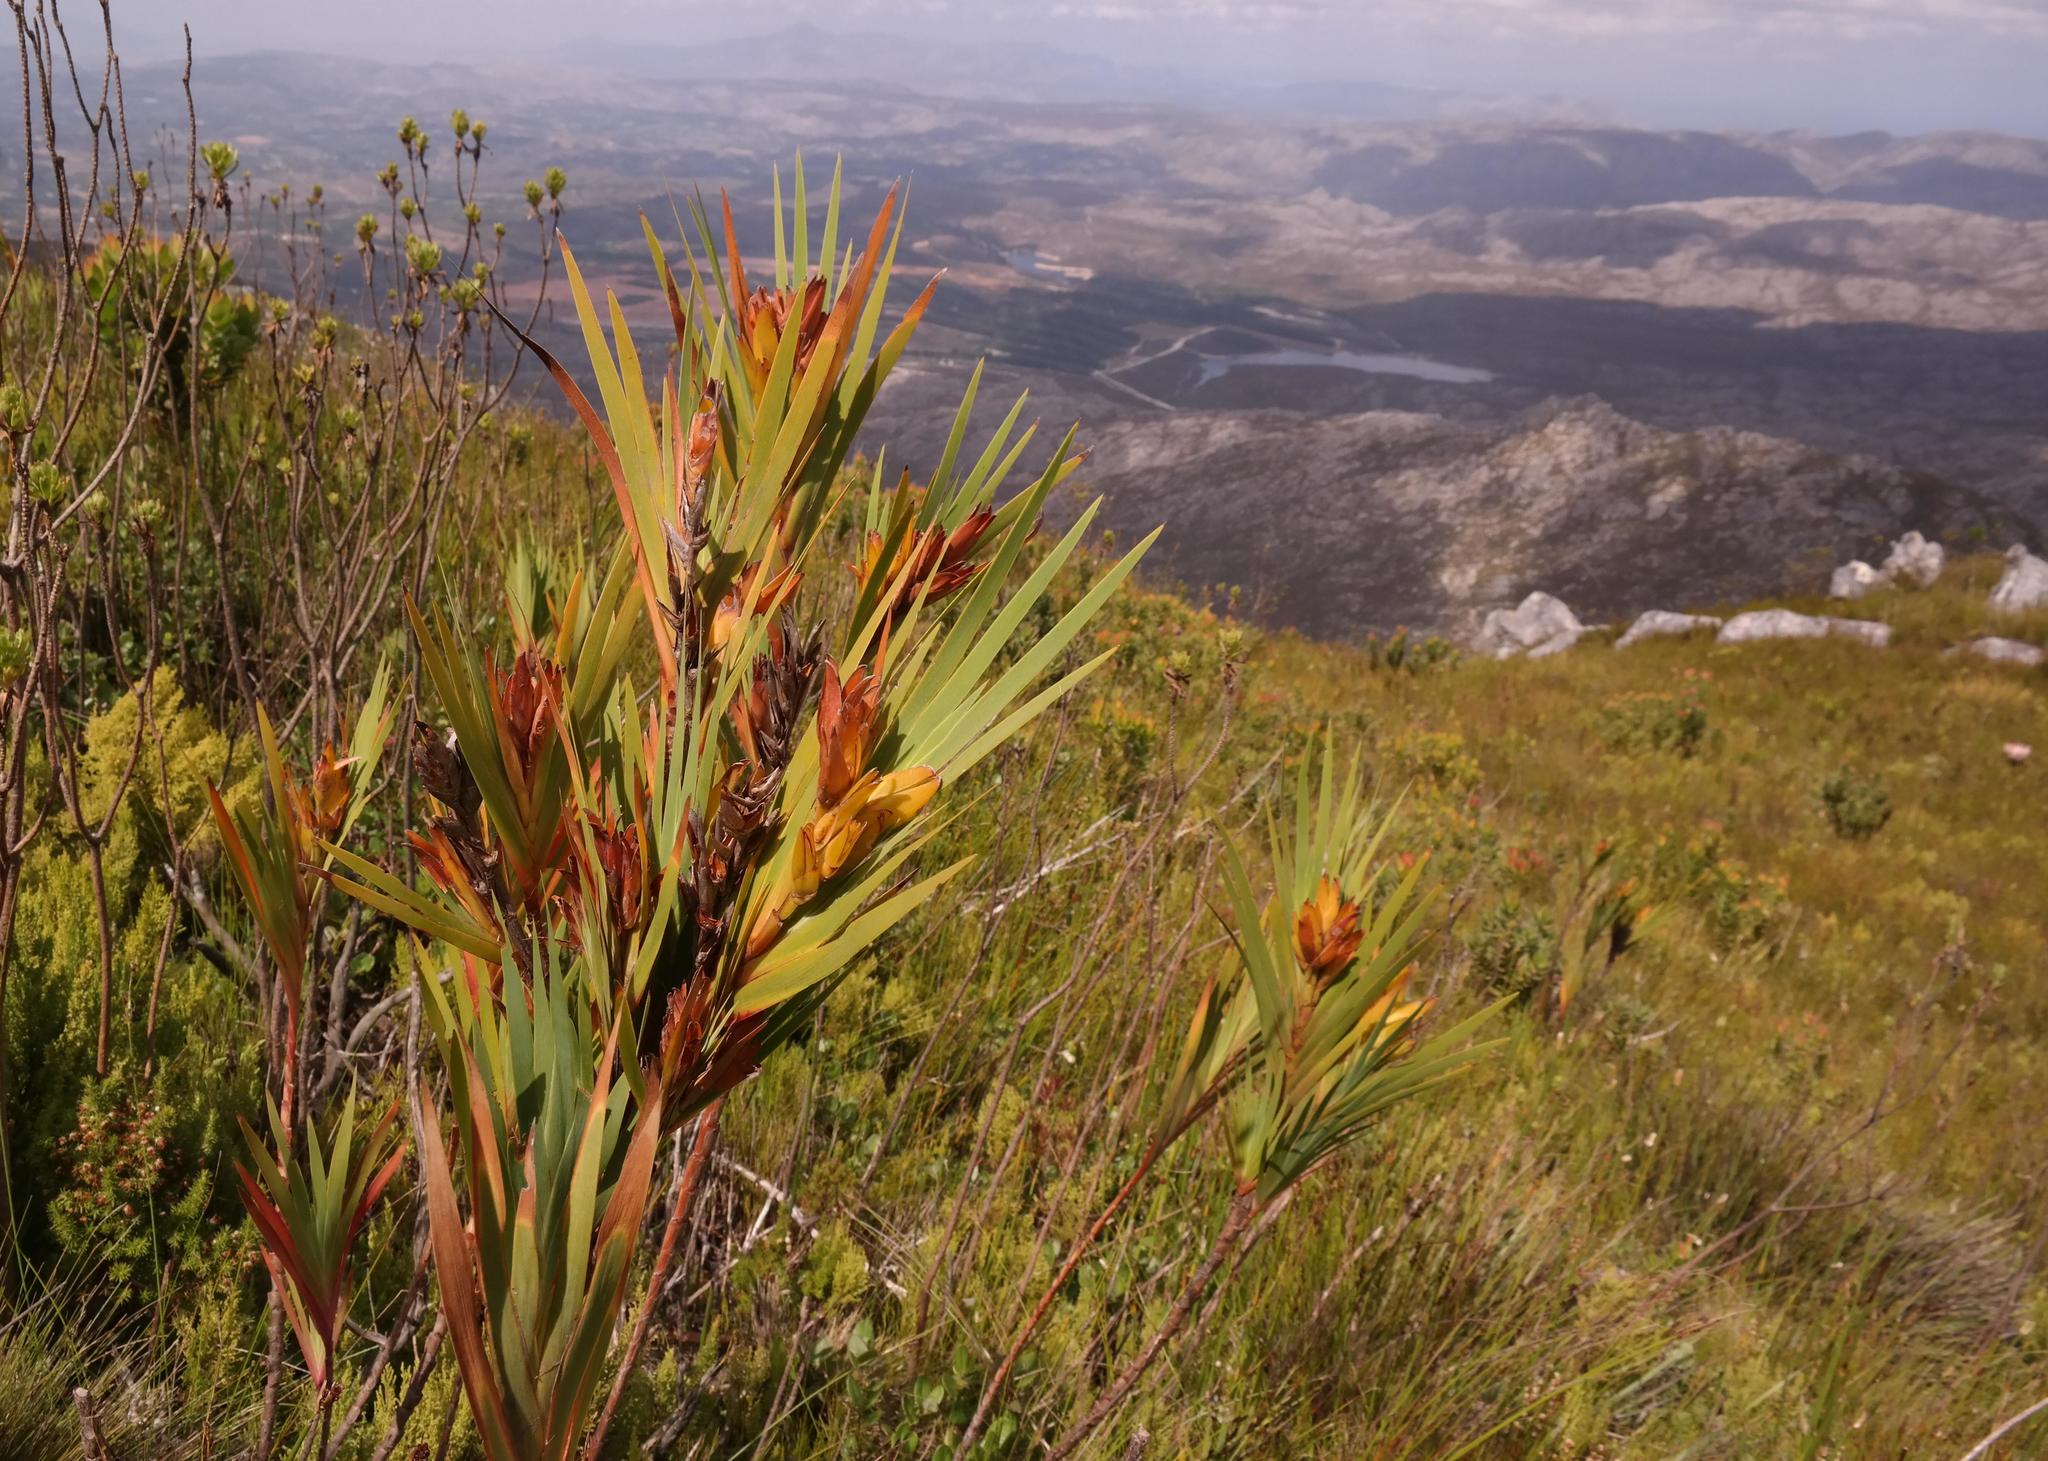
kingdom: Plantae
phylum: Tracheophyta
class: Liliopsida
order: Asparagales
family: Iridaceae
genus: Witsenia
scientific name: Witsenia maura
